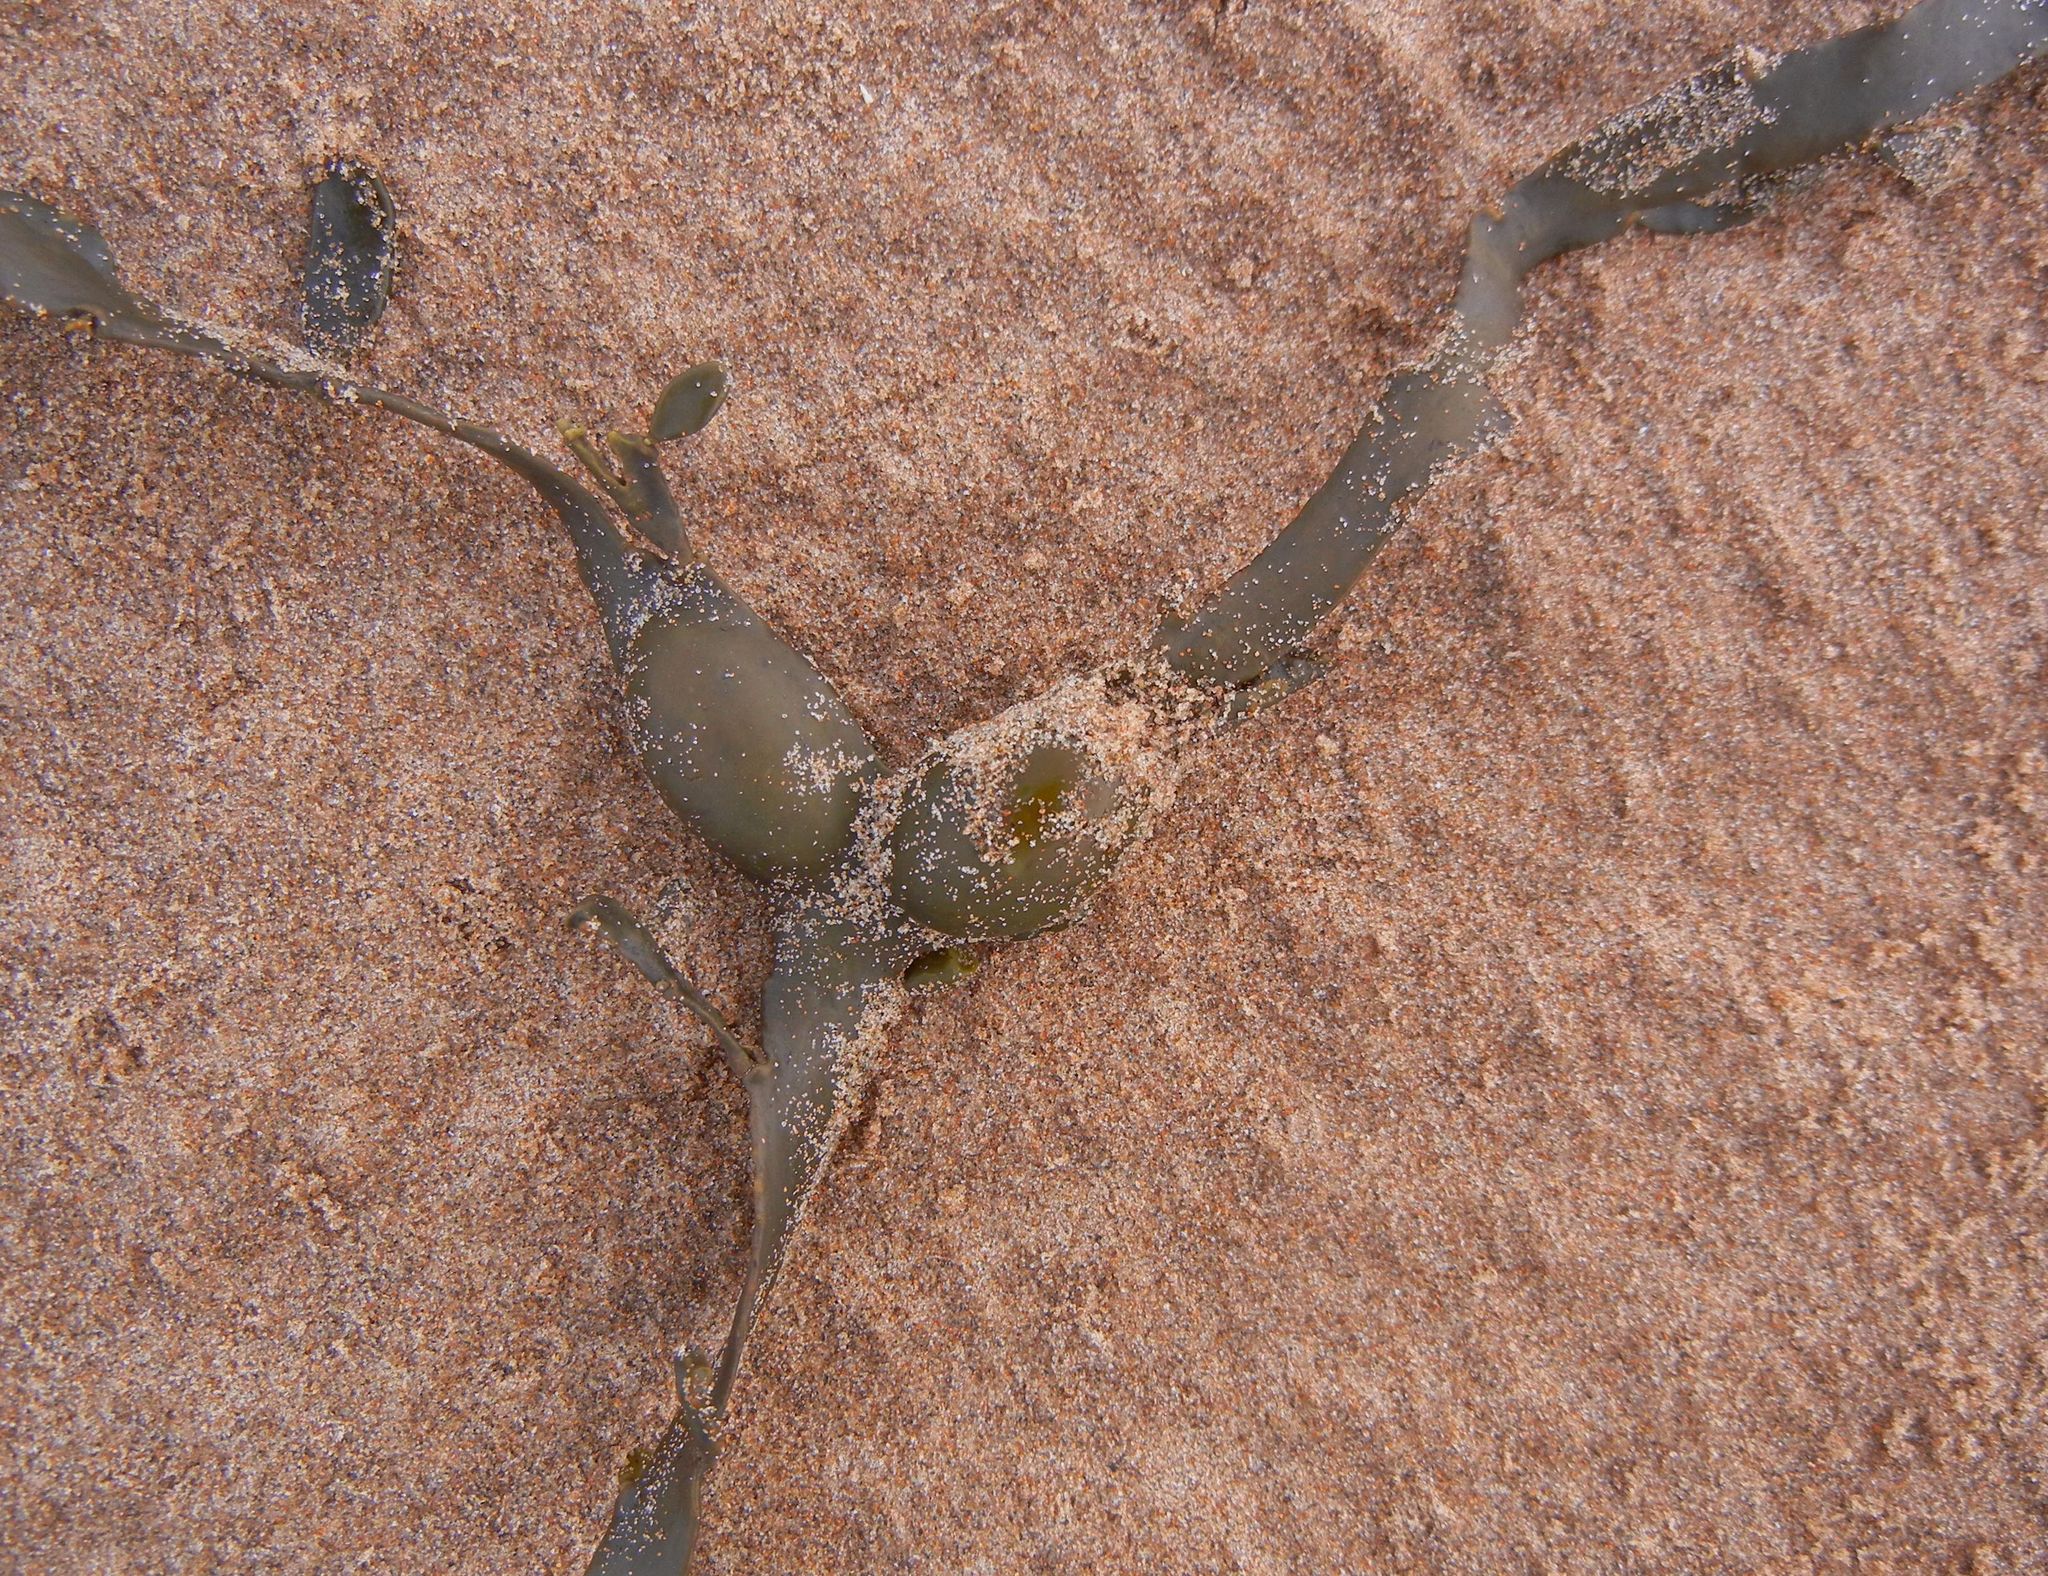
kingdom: Chromista
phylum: Ochrophyta
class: Phaeophyceae
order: Fucales
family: Fucaceae
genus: Ascophyllum
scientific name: Ascophyllum nodosum
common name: Knotted wrack
